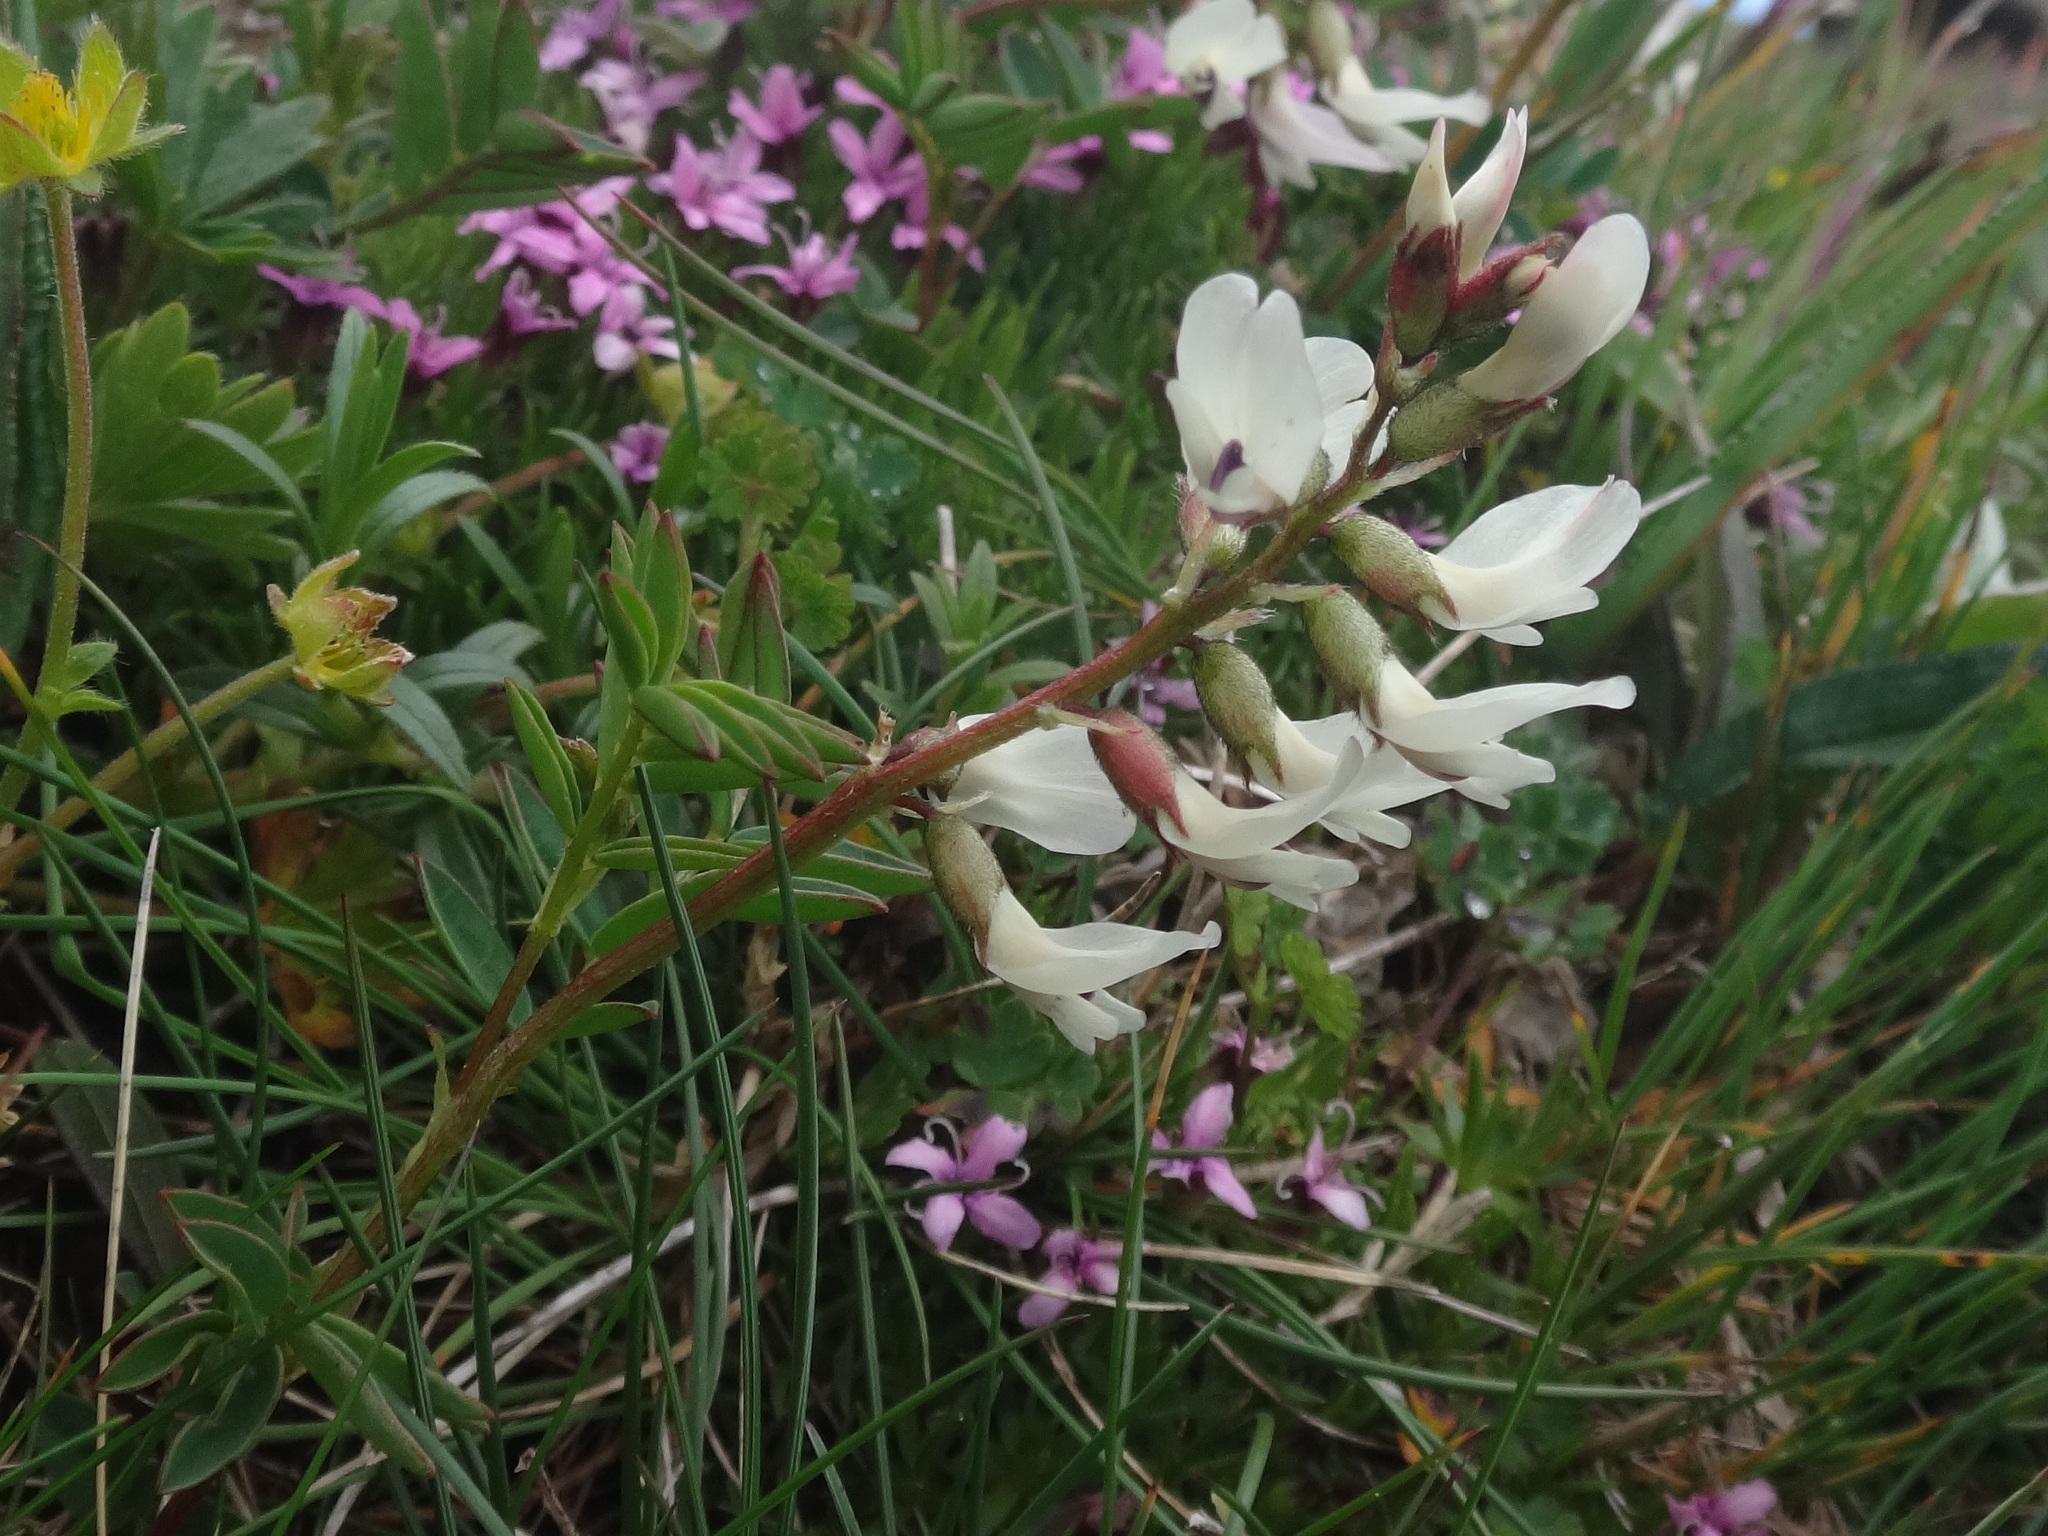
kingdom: Plantae
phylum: Tracheophyta
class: Magnoliopsida
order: Fabales
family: Fabaceae
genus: Astragalus
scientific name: Astragalus australis
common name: Indian milk-vetch
